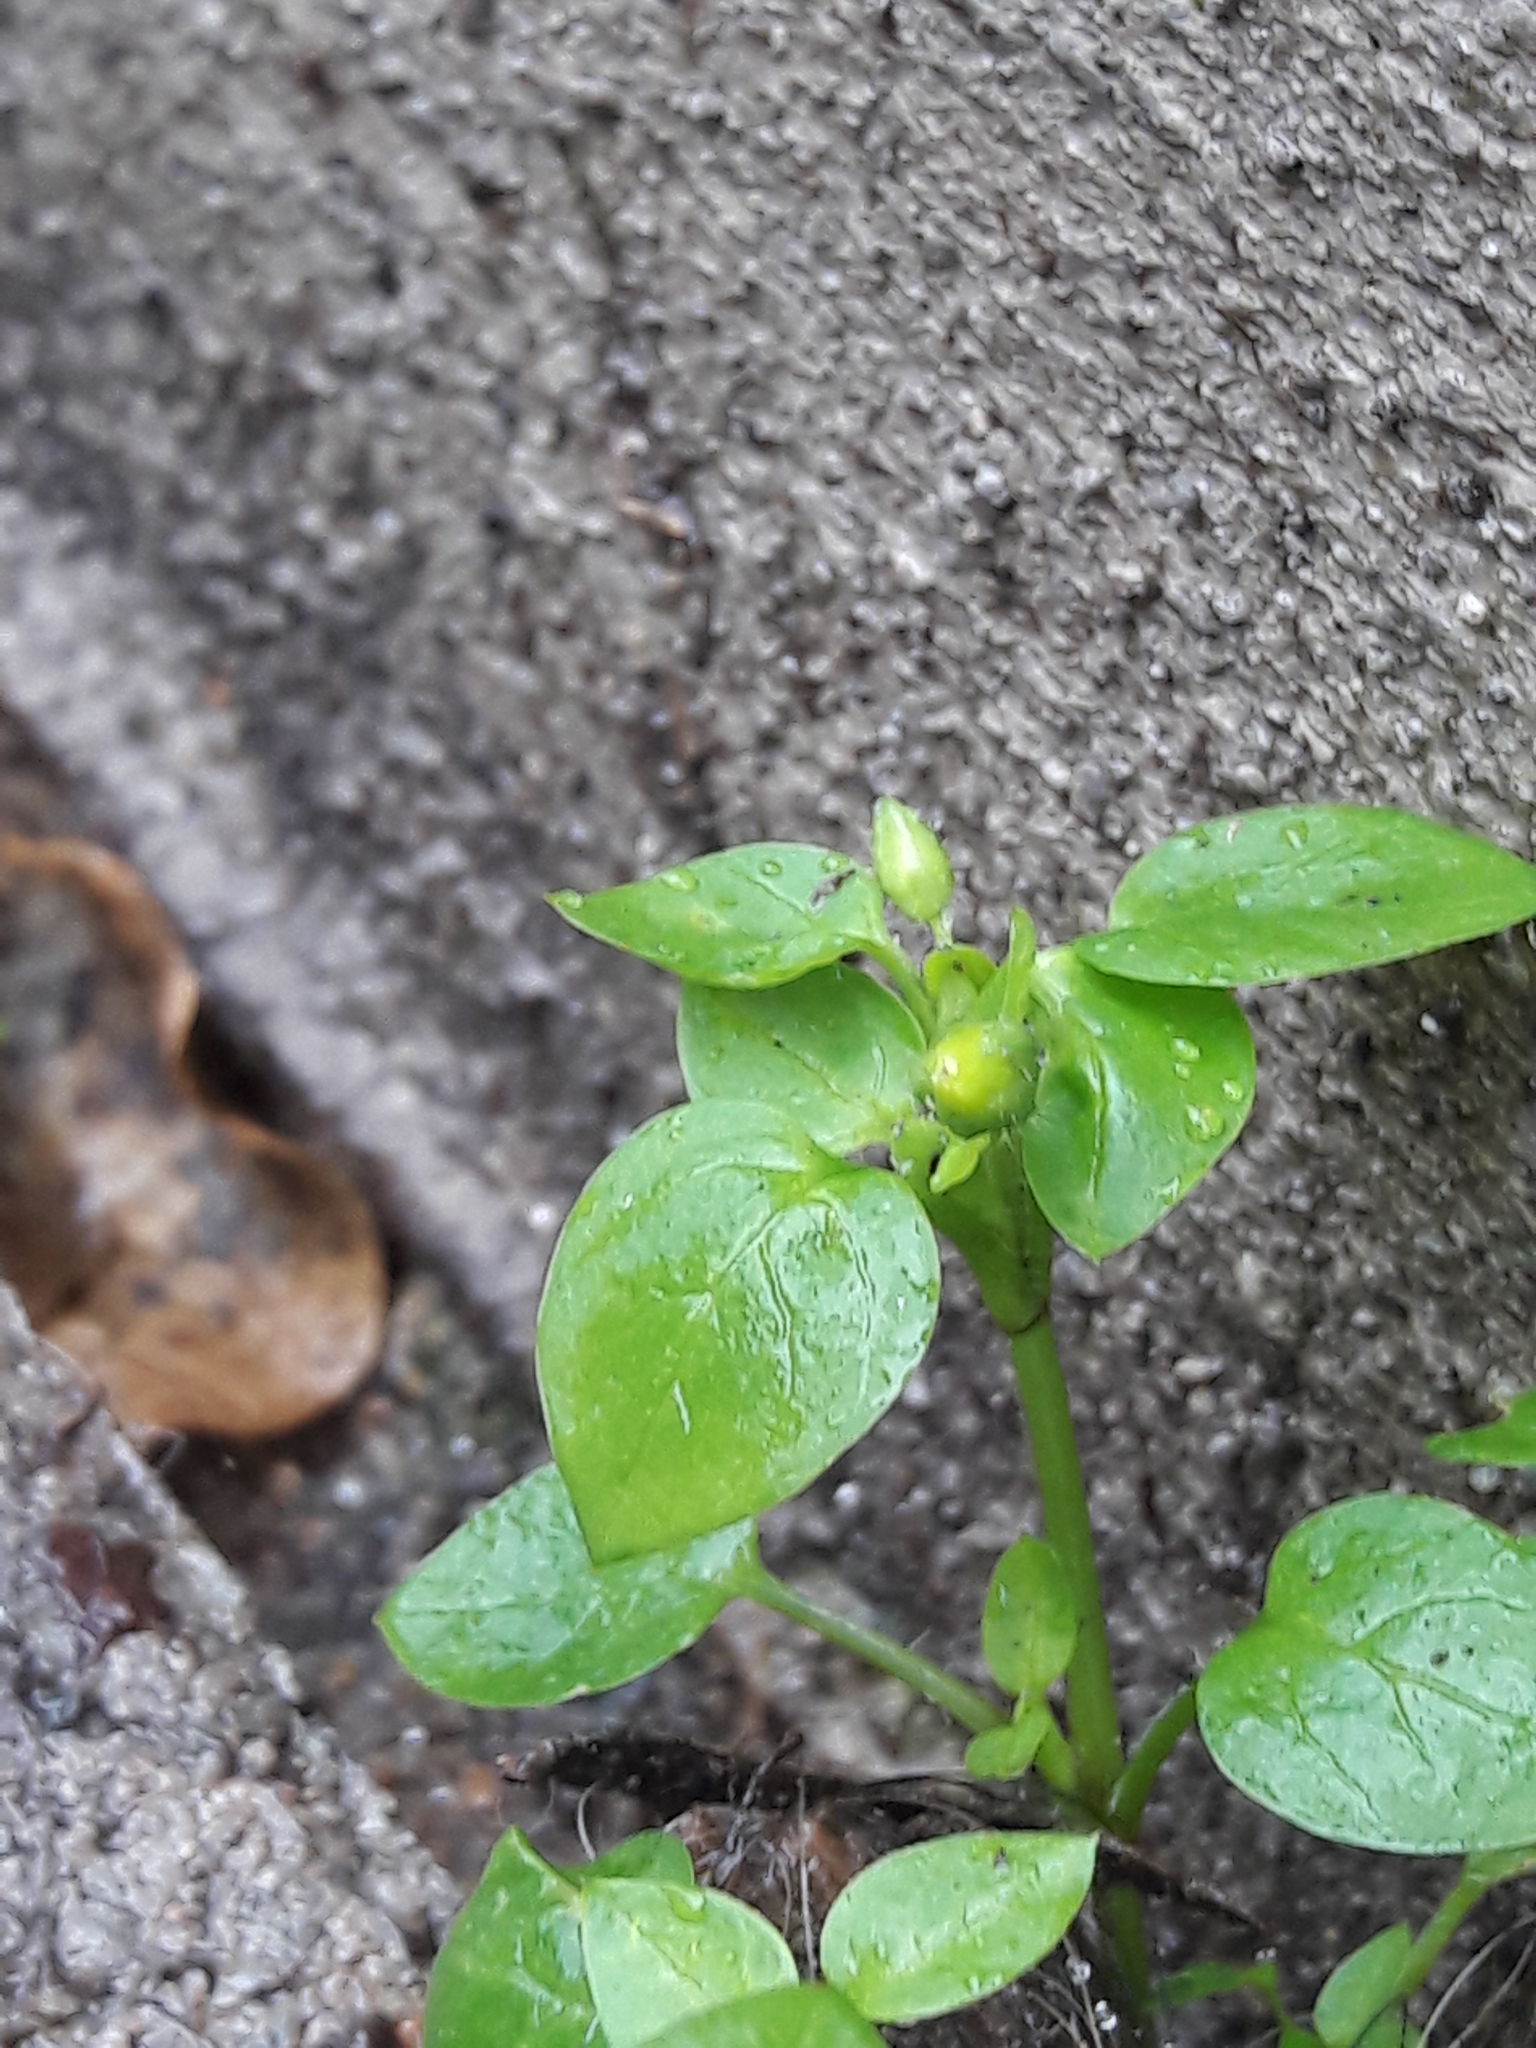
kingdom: Plantae
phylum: Tracheophyta
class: Magnoliopsida
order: Caryophyllales
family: Caryophyllaceae
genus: Stellaria
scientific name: Stellaria media
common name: Common chickweed
